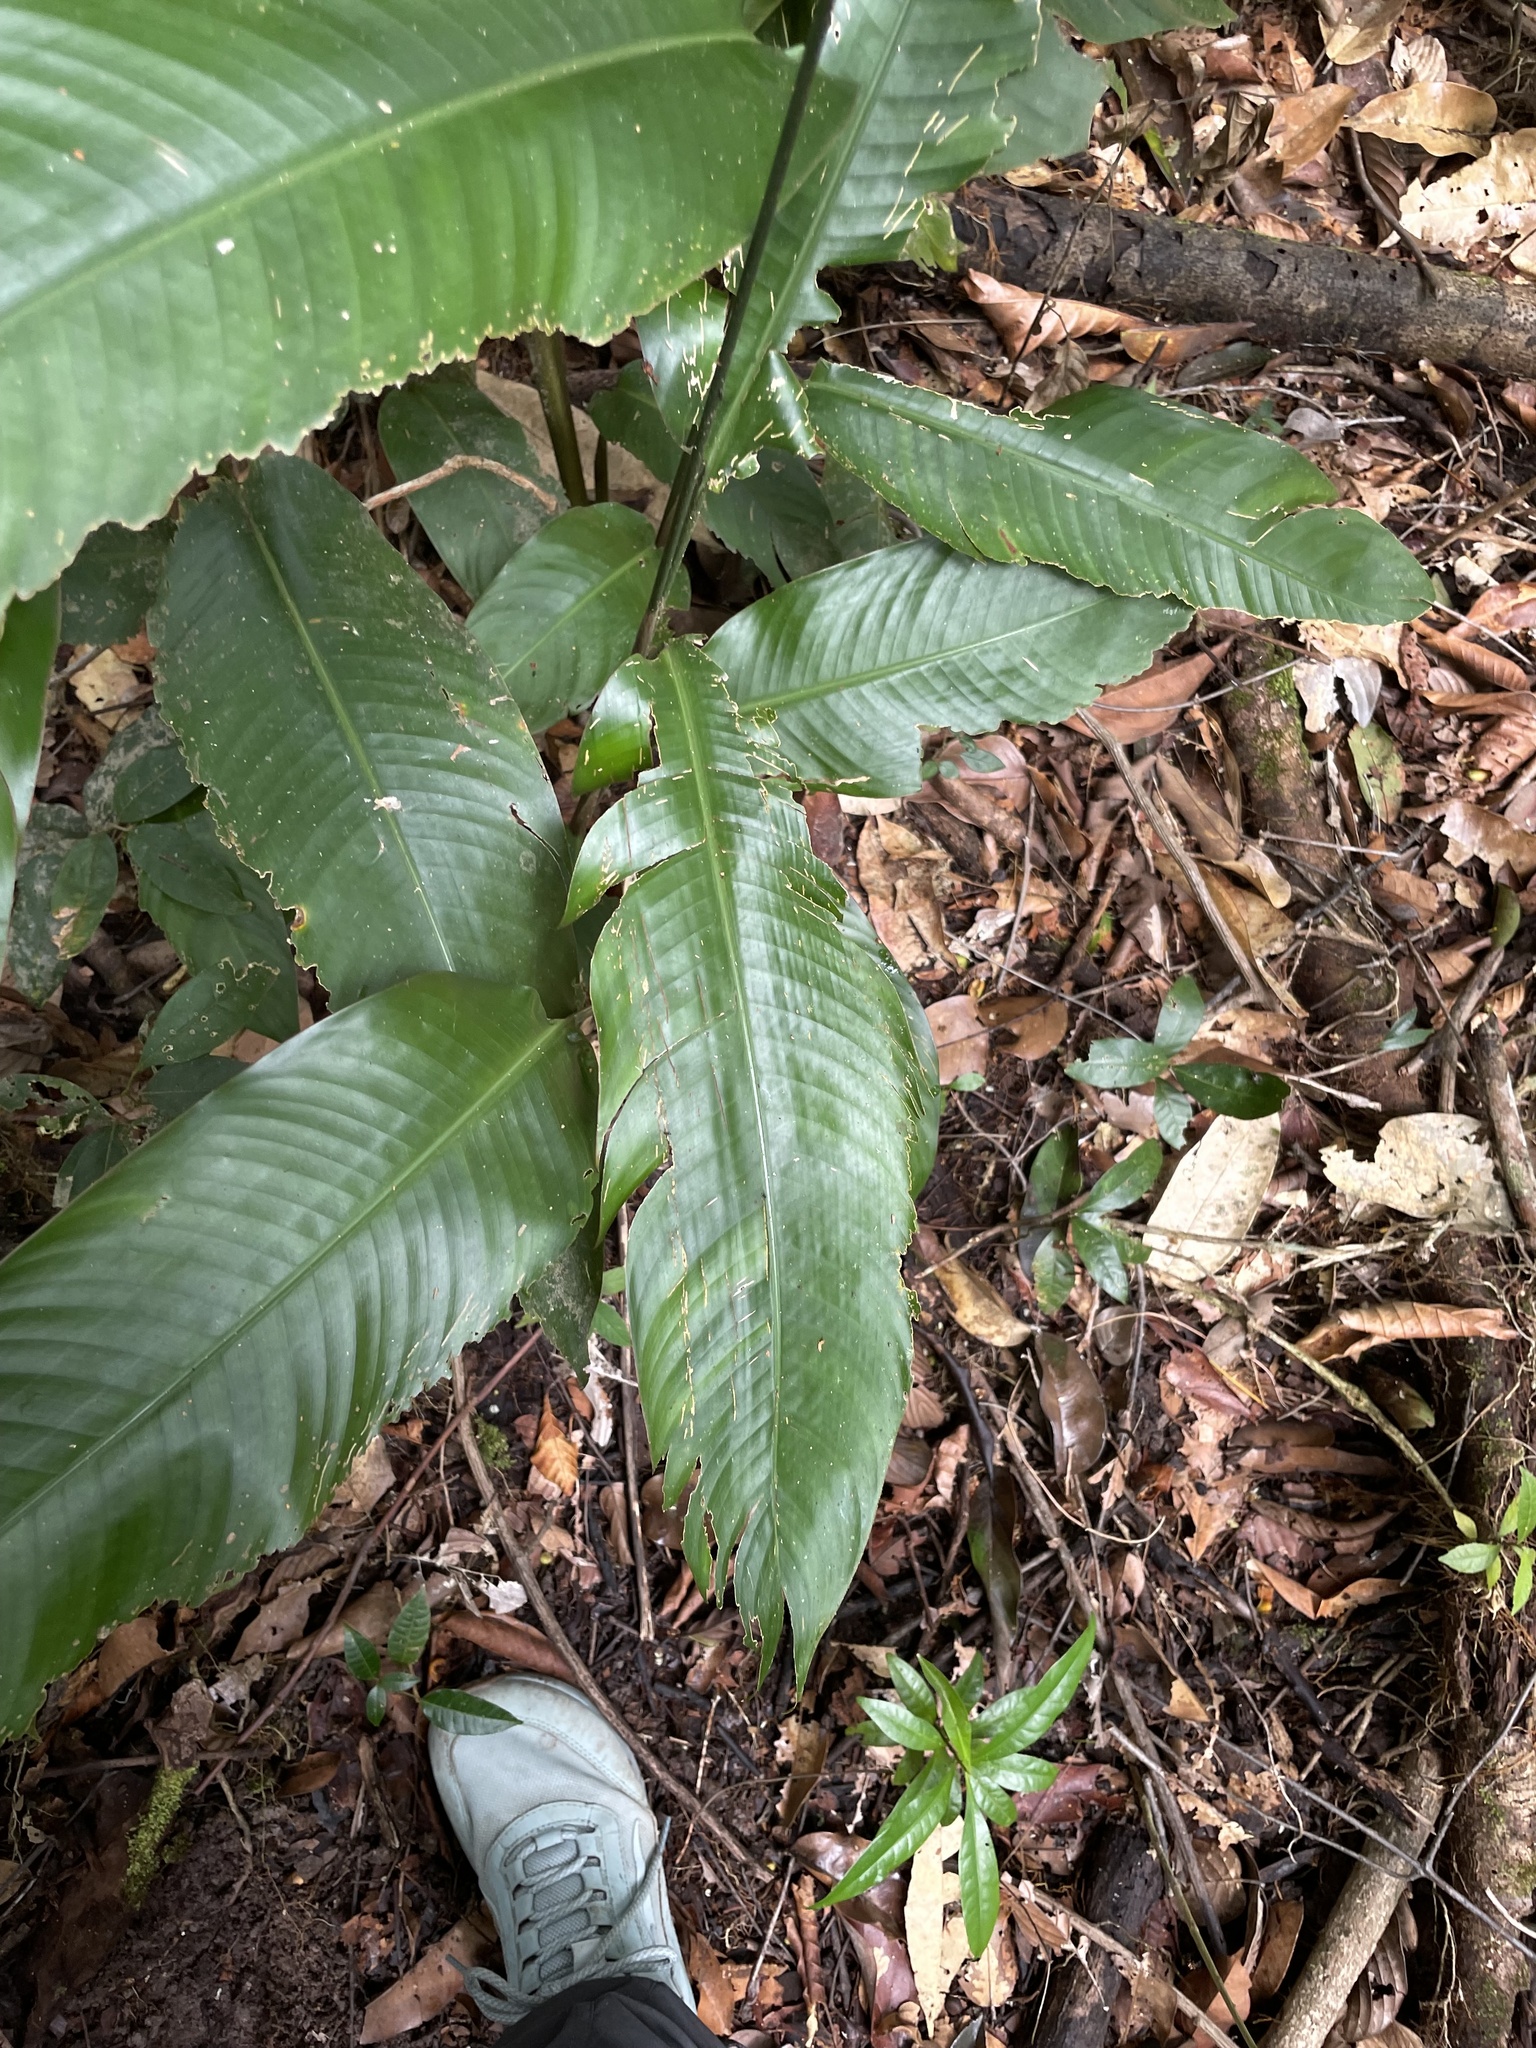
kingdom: Plantae
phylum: Tracheophyta
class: Liliopsida
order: Zingiberales
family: Heliconiaceae
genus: Heliconia
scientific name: Heliconia psittacorum
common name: Parrot's-flower
